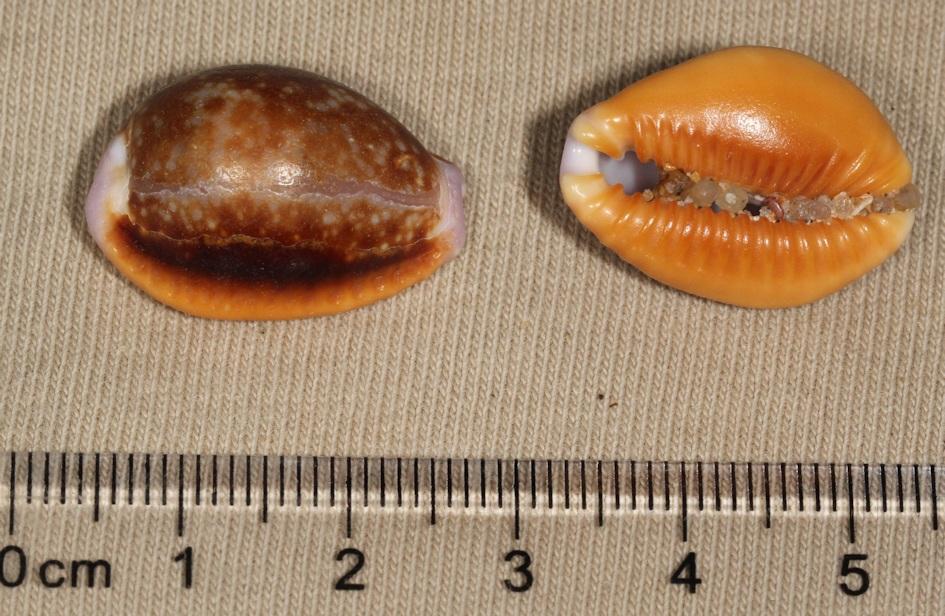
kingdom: Animalia
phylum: Mollusca
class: Gastropoda
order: Littorinimorpha
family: Cypraeidae
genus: Naria
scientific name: Naria helvola
